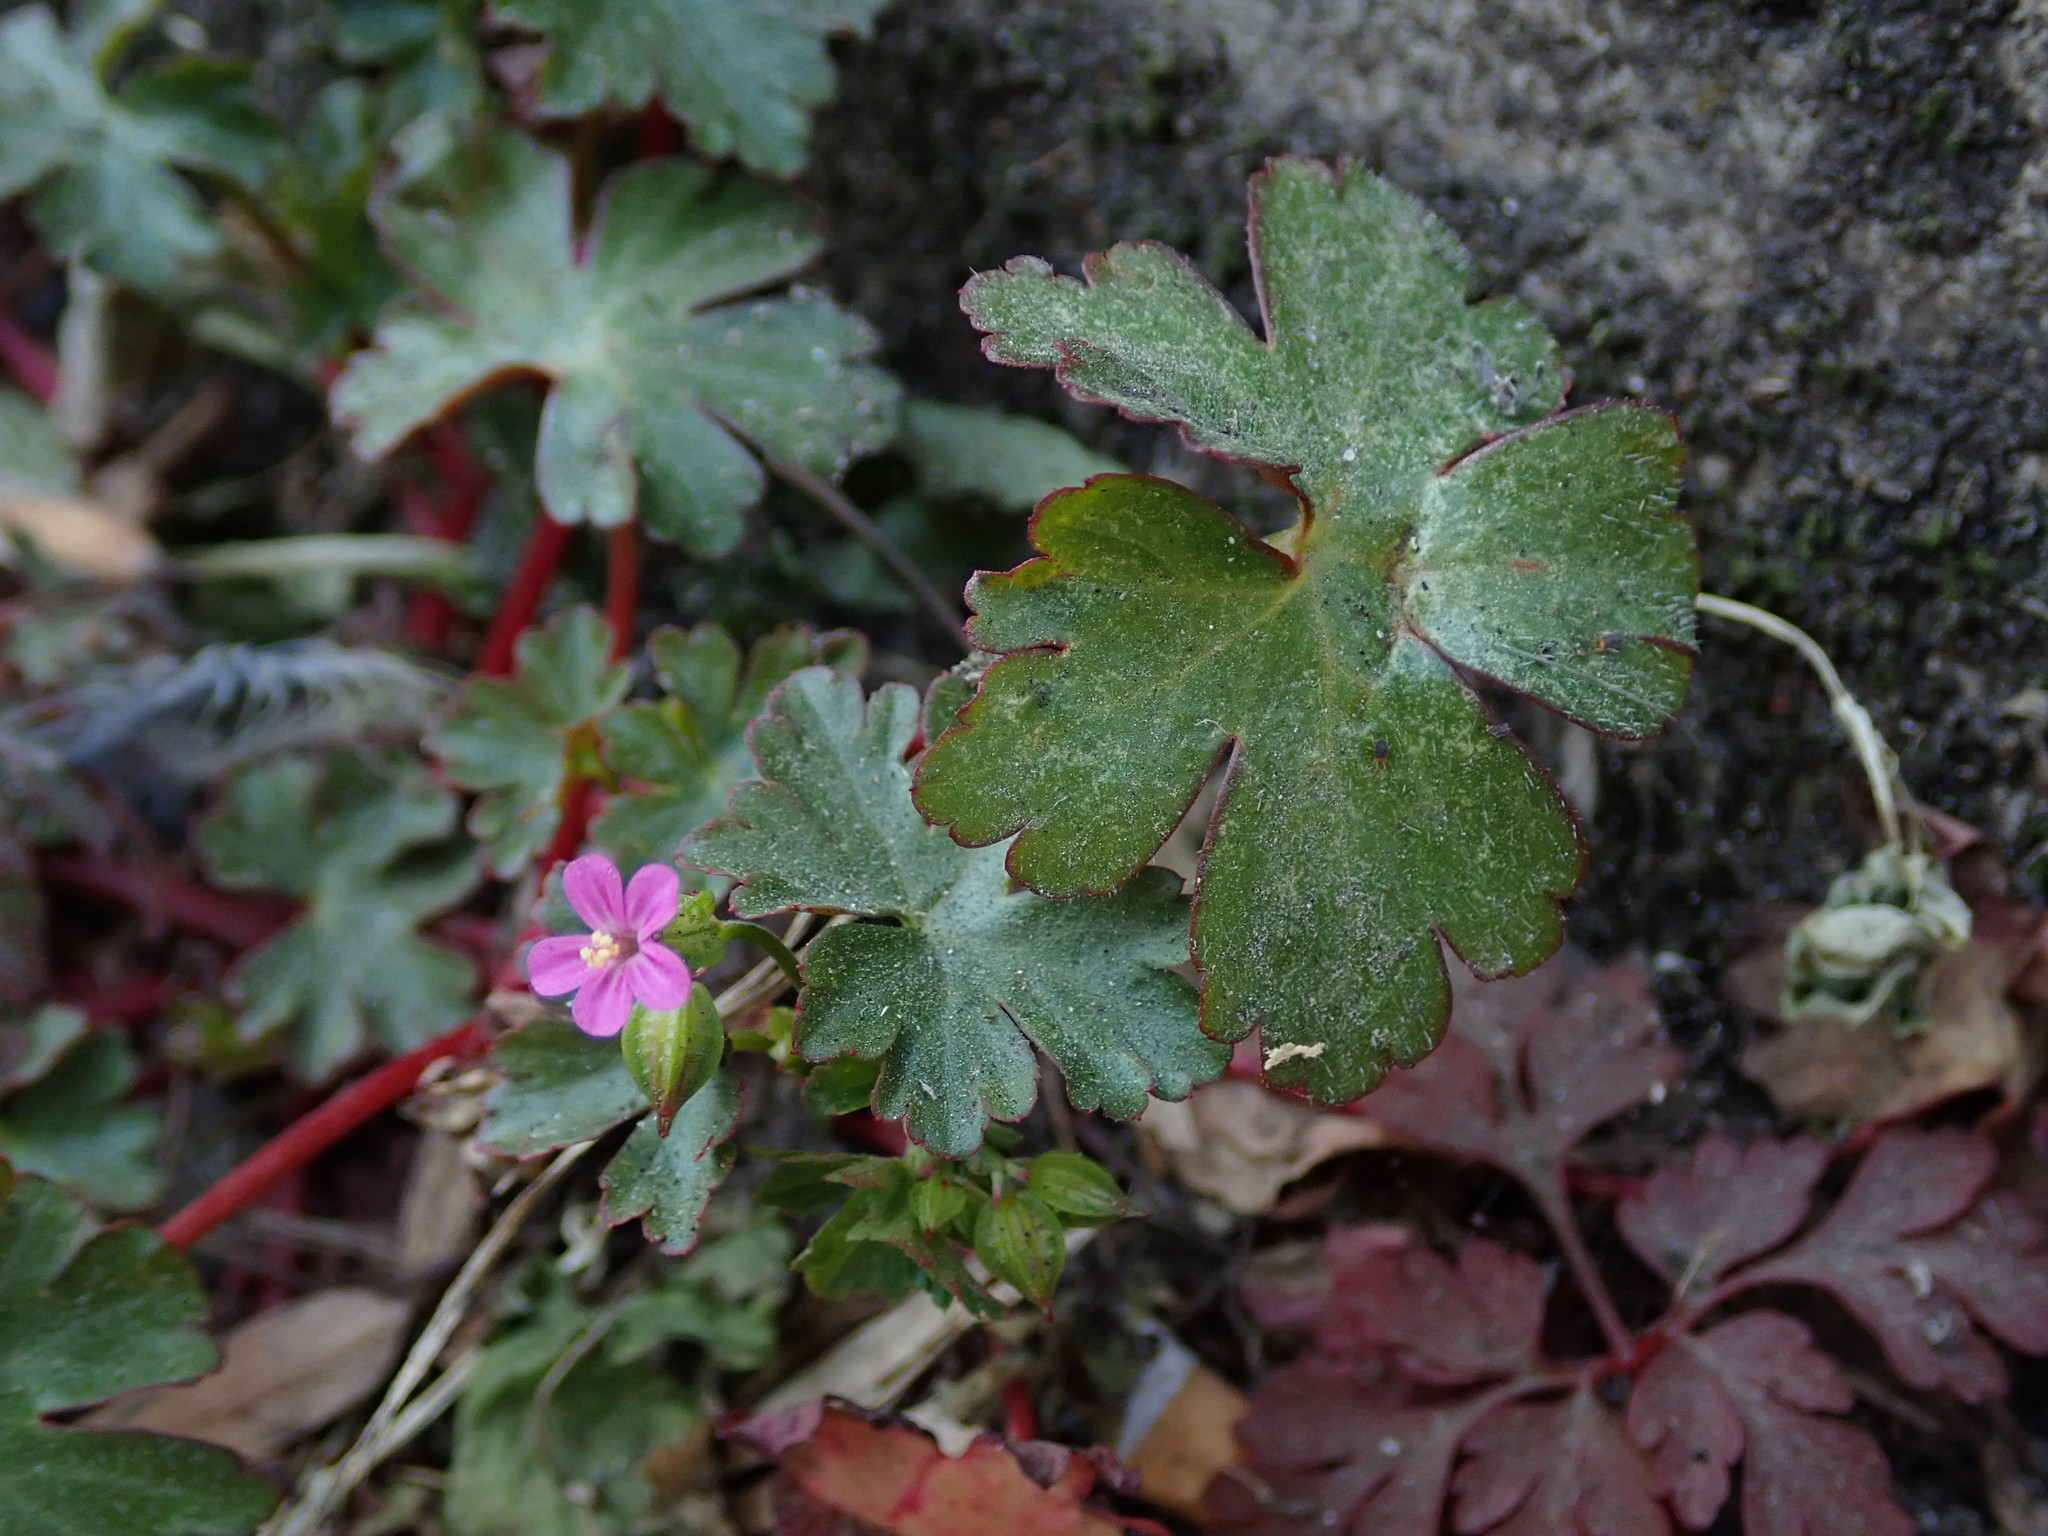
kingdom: Plantae
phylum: Tracheophyta
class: Magnoliopsida
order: Geraniales
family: Geraniaceae
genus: Geranium
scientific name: Geranium lucidum
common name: Shining crane's-bill
